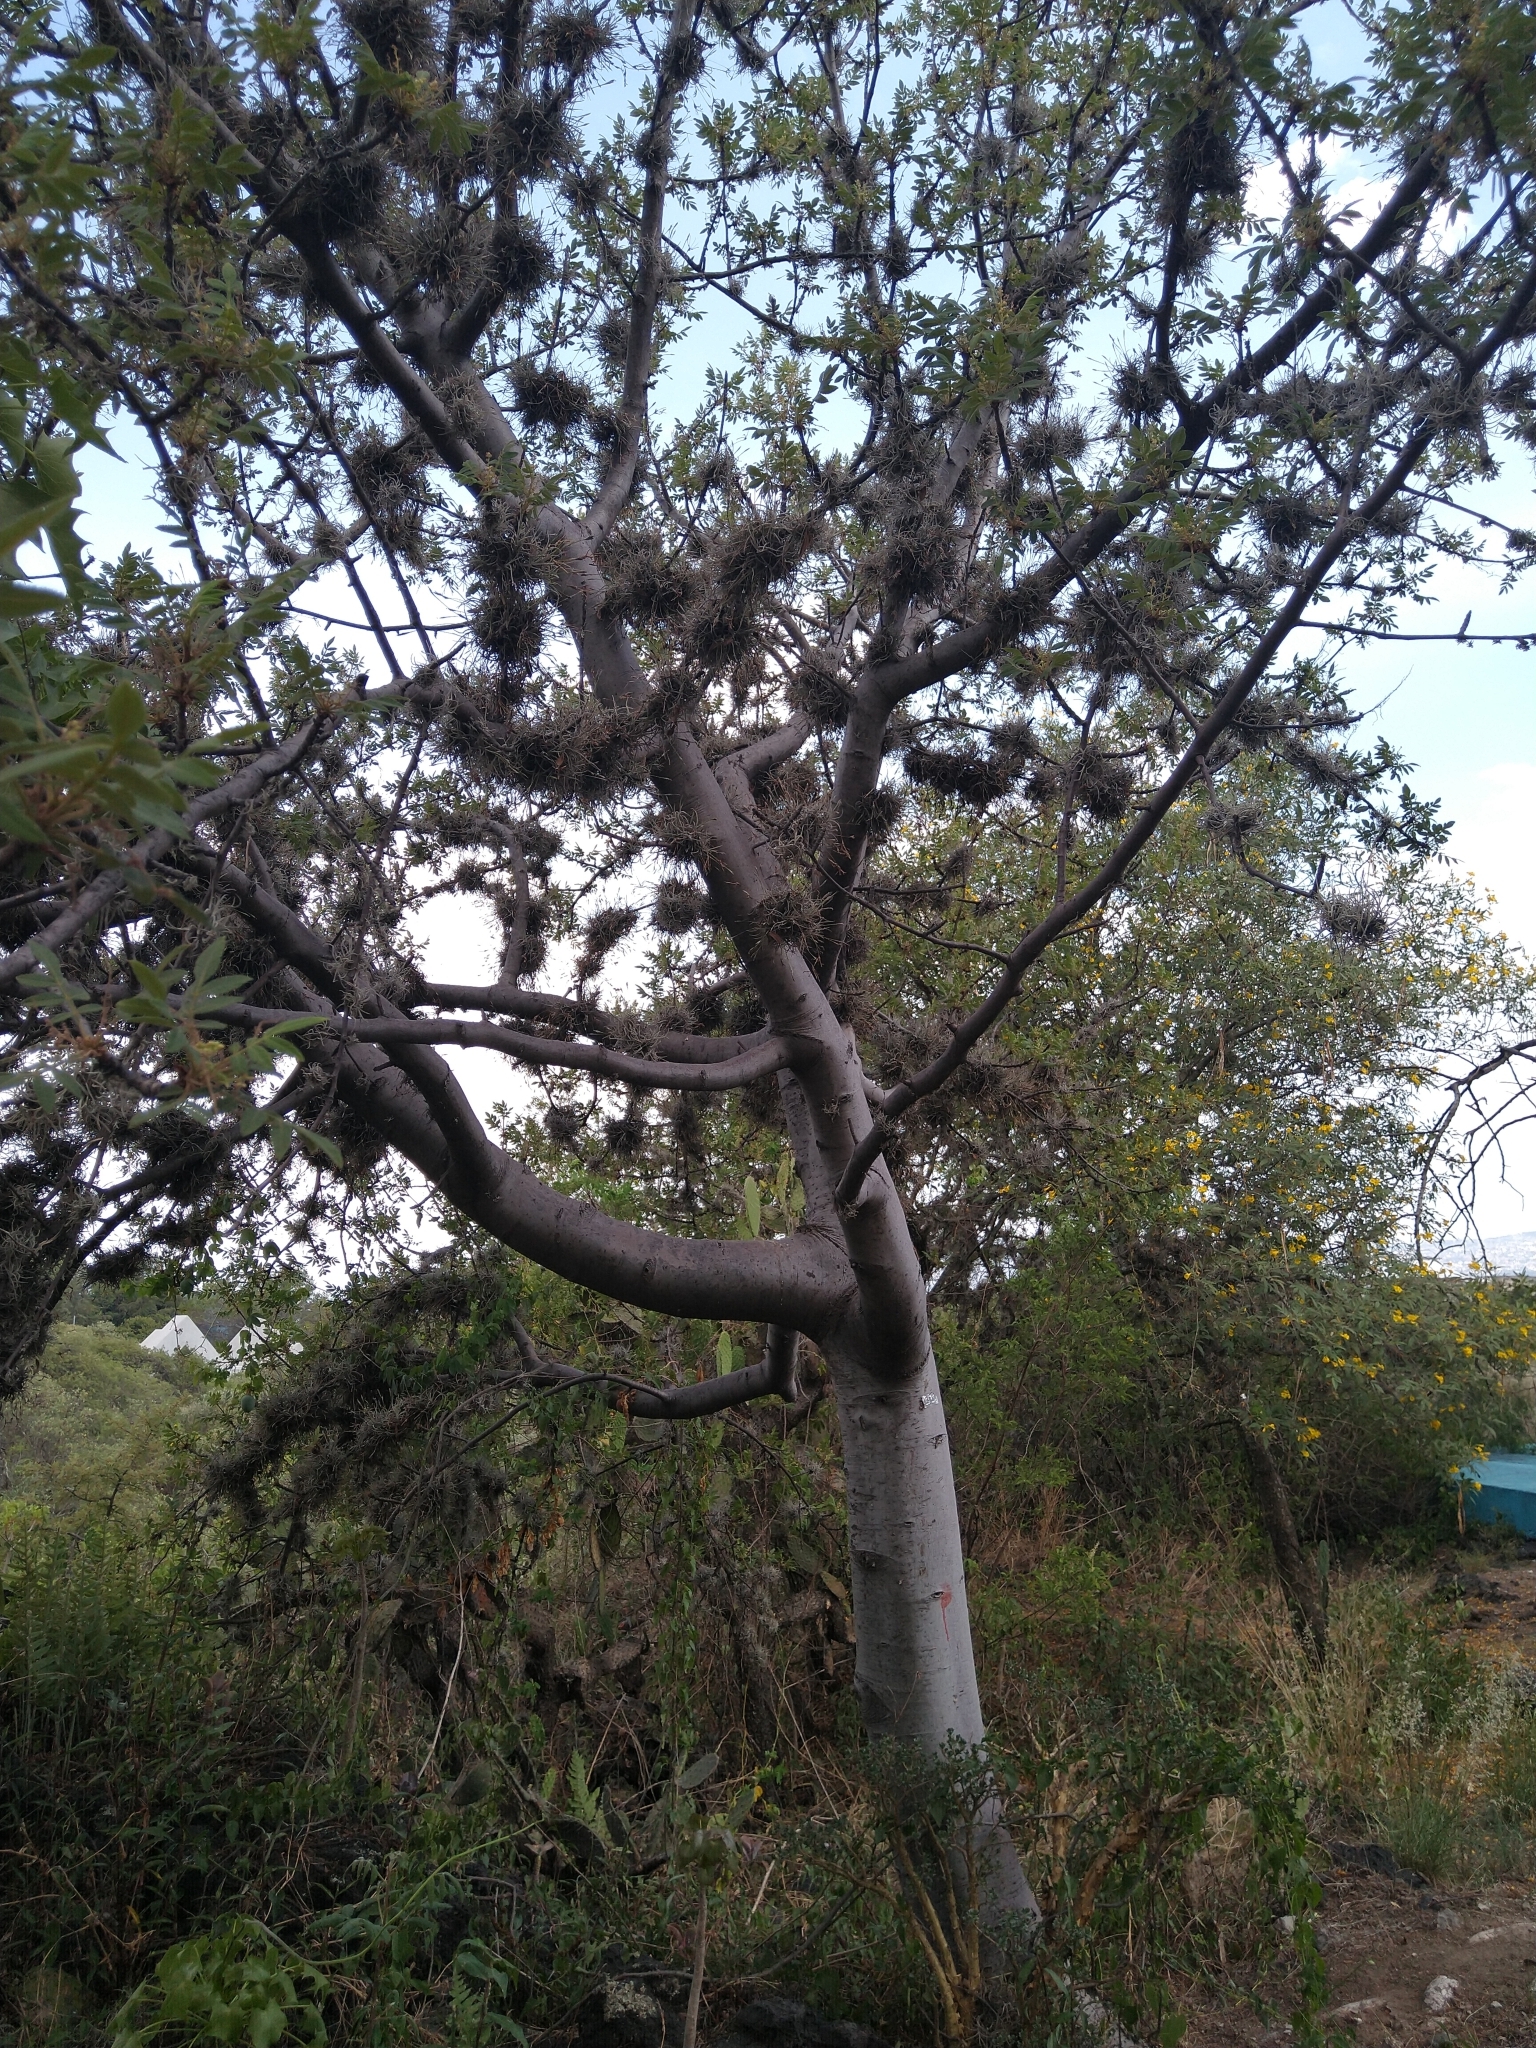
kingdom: Plantae
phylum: Tracheophyta
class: Magnoliopsida
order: Sapindales
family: Burseraceae
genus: Bursera
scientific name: Bursera cuneata
